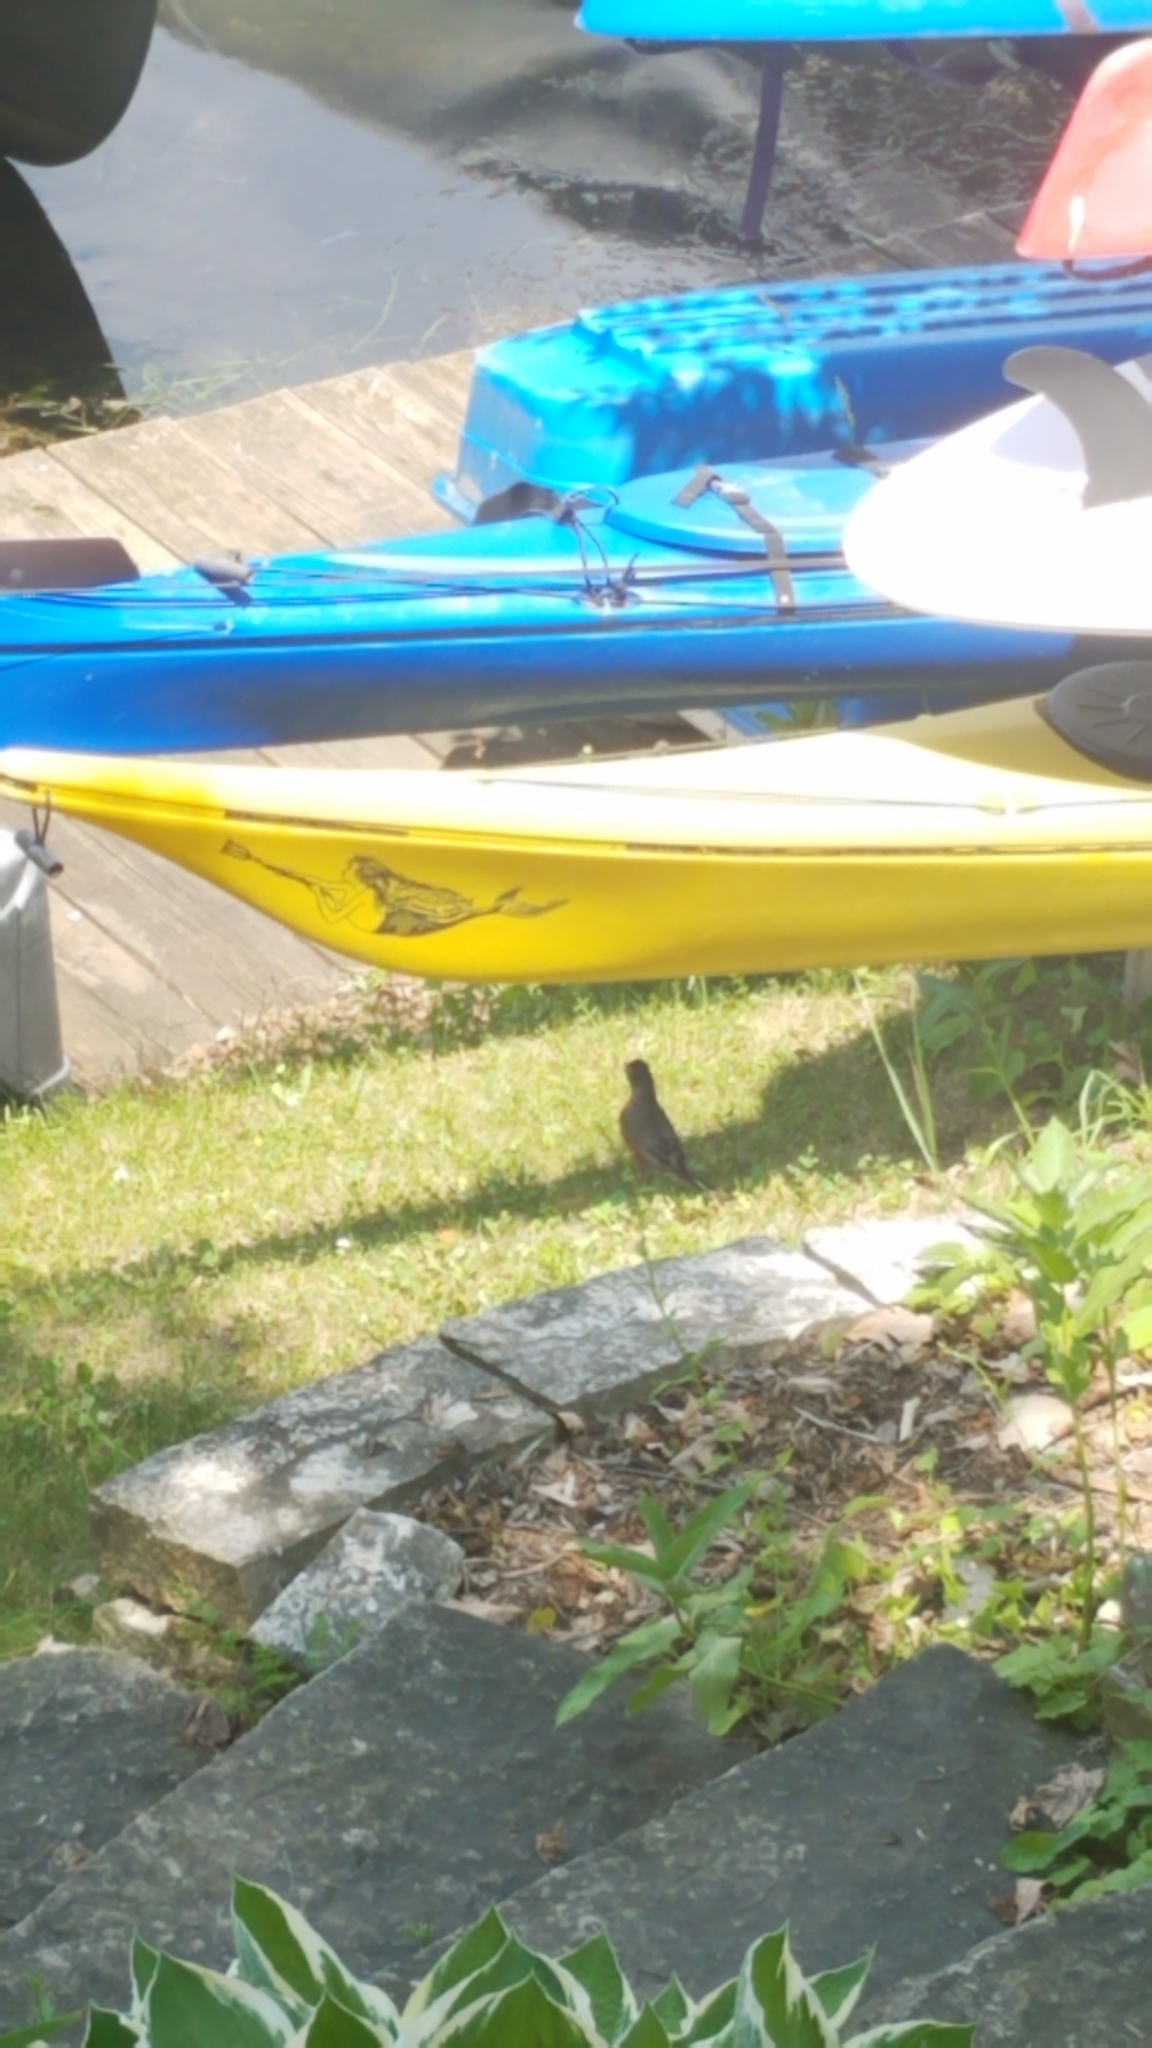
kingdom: Animalia
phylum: Chordata
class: Aves
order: Passeriformes
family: Turdidae
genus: Turdus
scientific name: Turdus migratorius
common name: American robin
